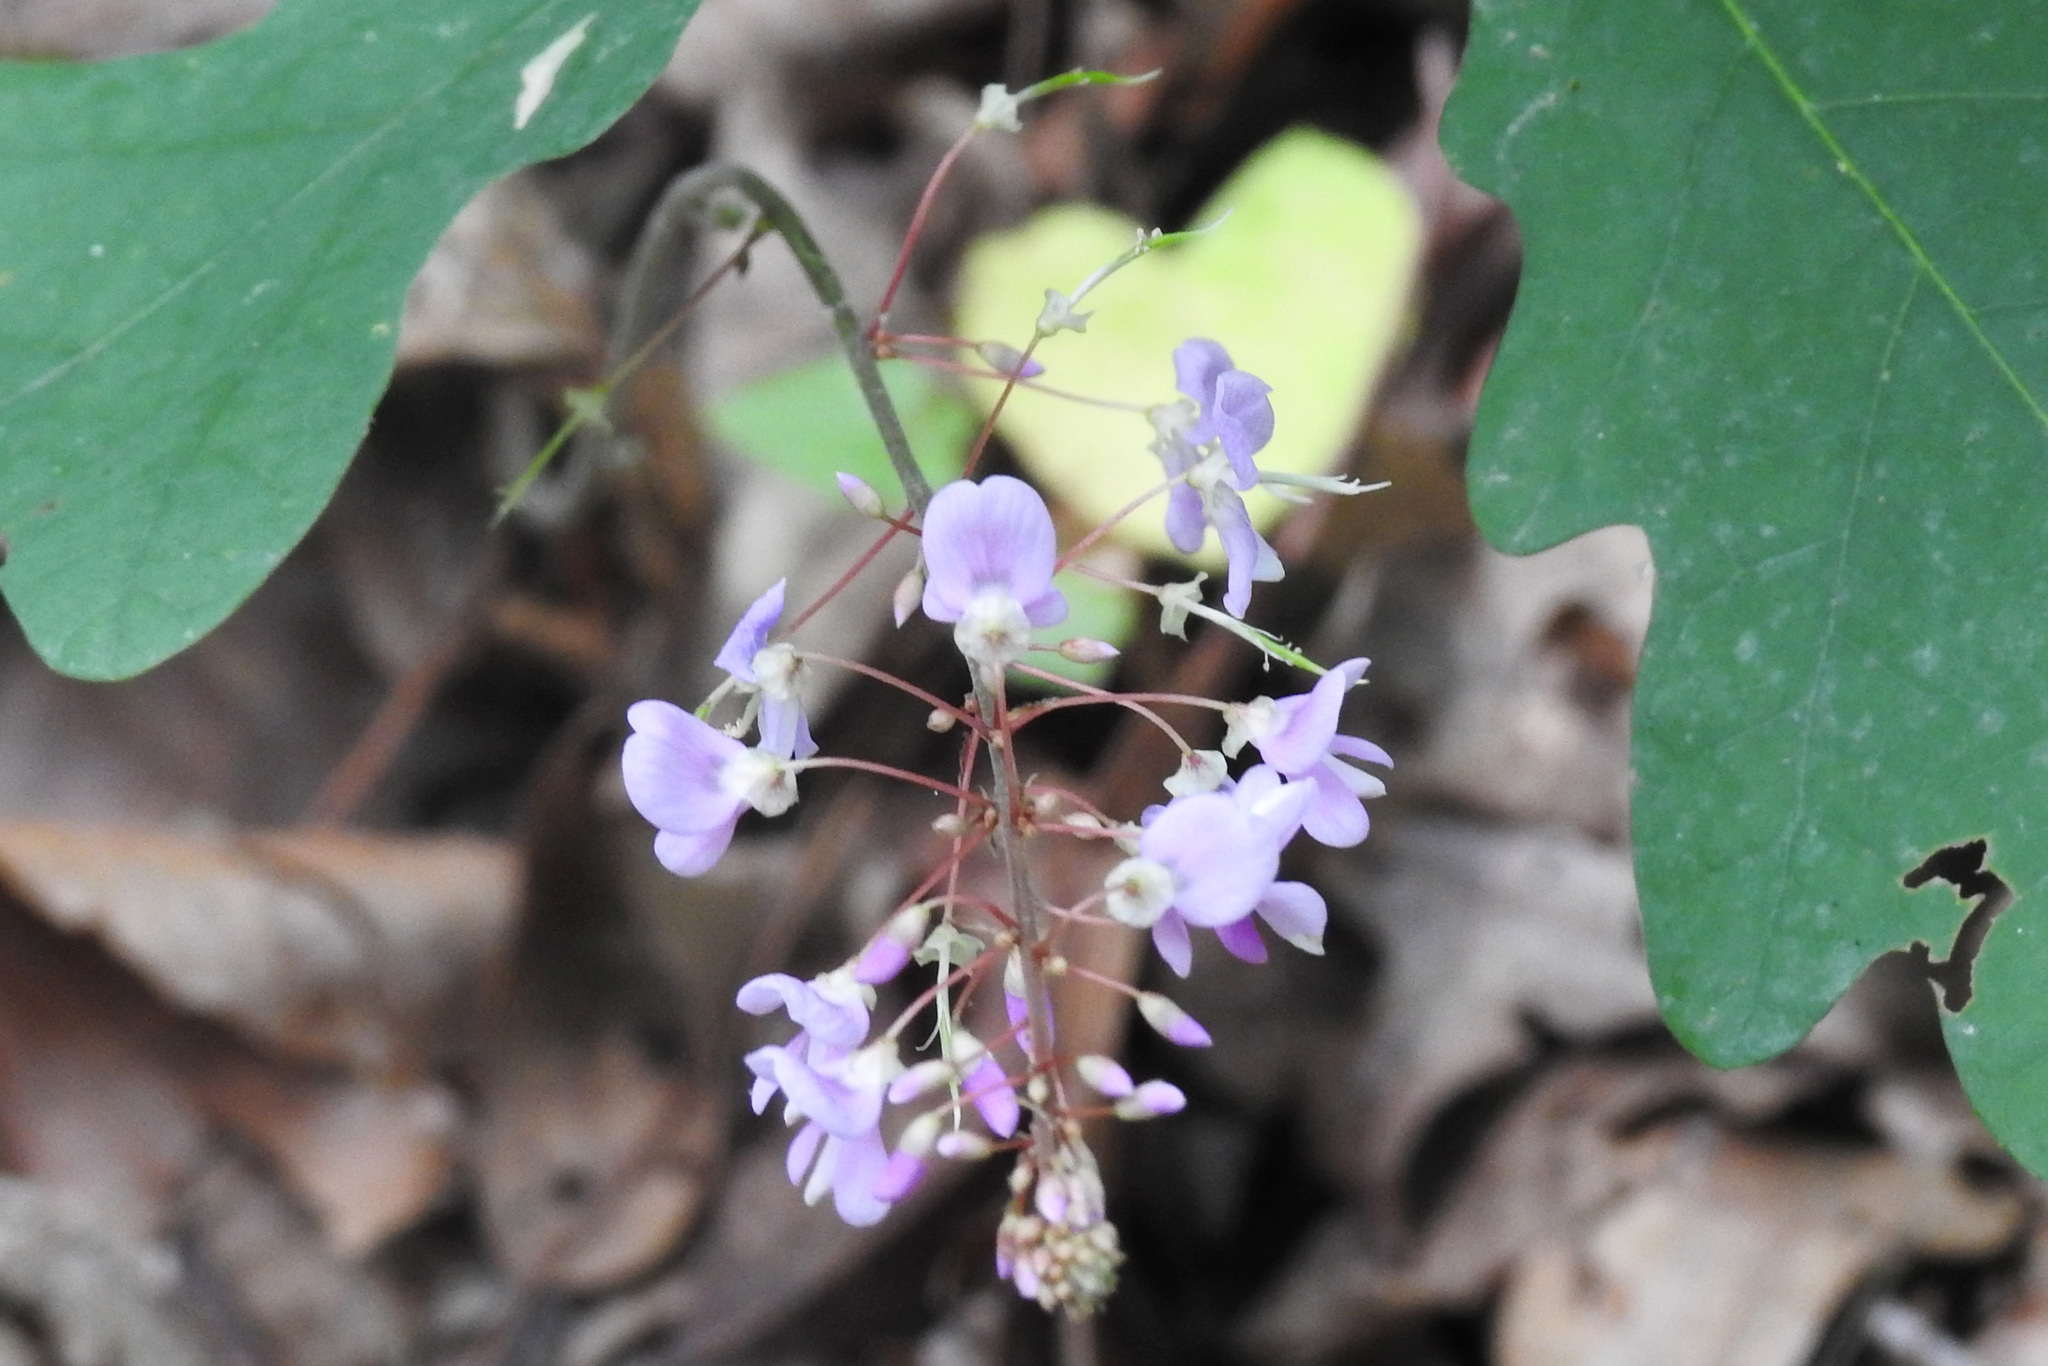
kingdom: Plantae
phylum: Tracheophyta
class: Magnoliopsida
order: Fabales
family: Fabaceae
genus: Hylodesmum
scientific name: Hylodesmum nudiflorum
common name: Bare-stemmed tick-trefoil
